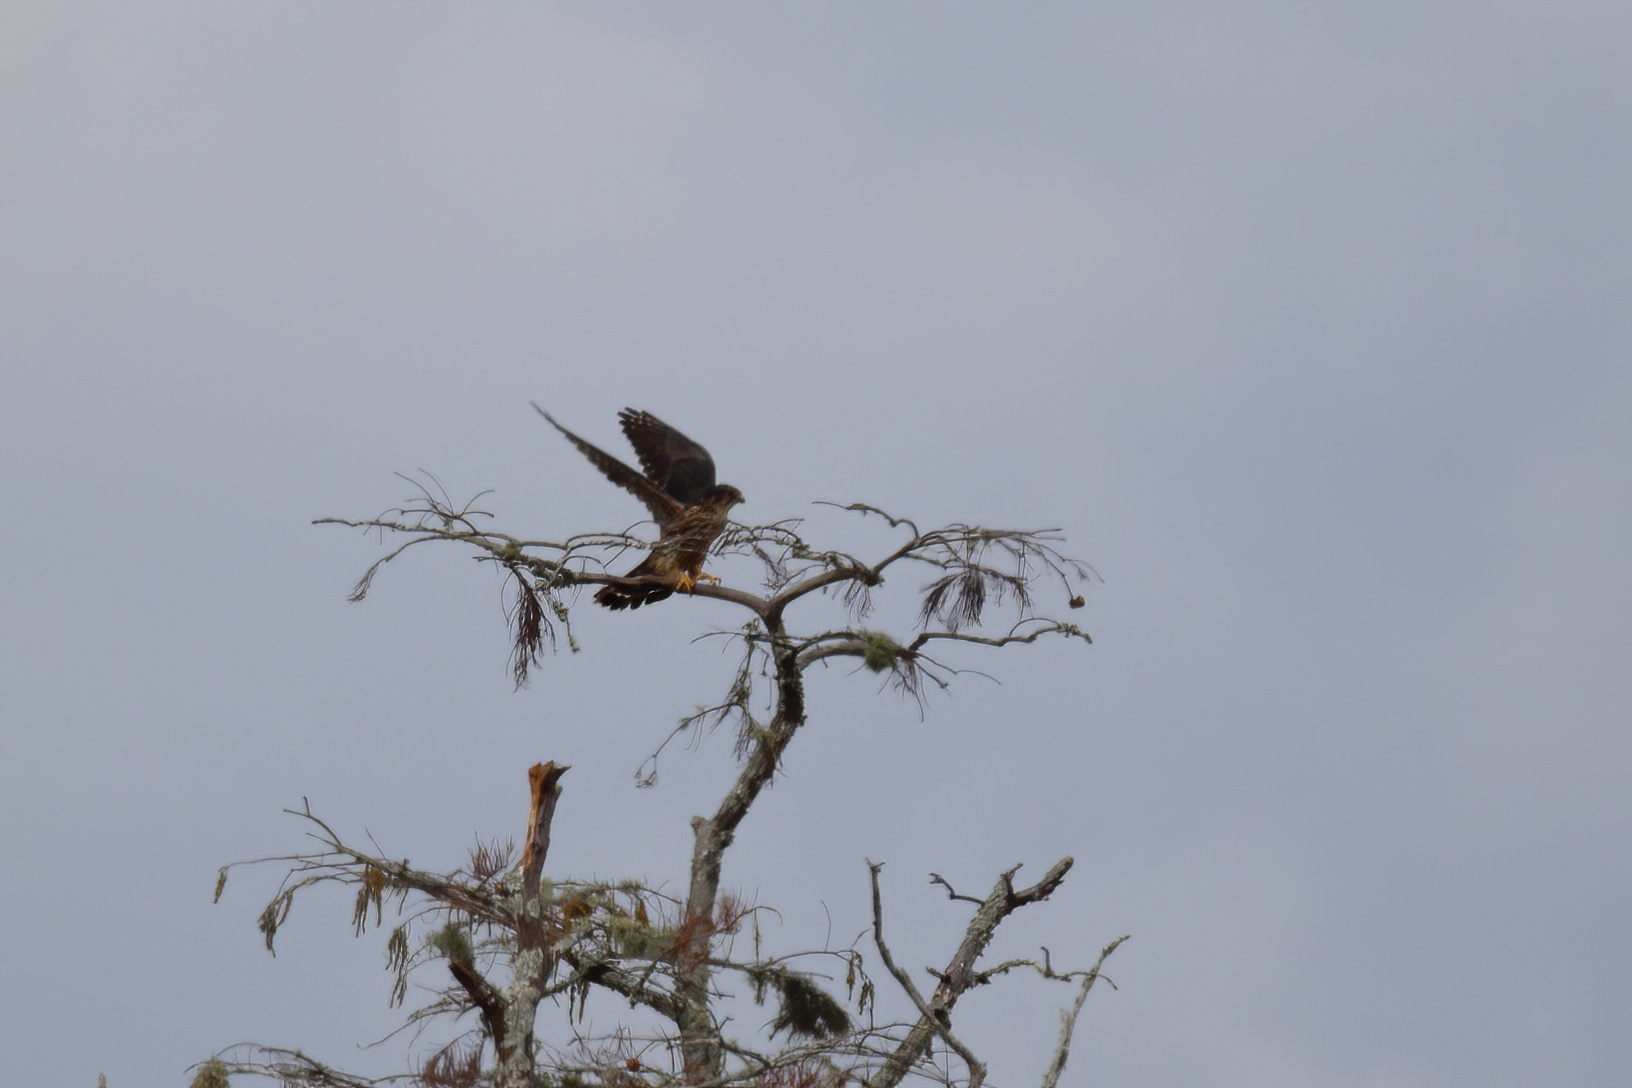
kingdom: Animalia
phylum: Chordata
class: Aves
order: Falconiformes
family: Falconidae
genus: Falco
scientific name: Falco columbarius
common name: Merlin
